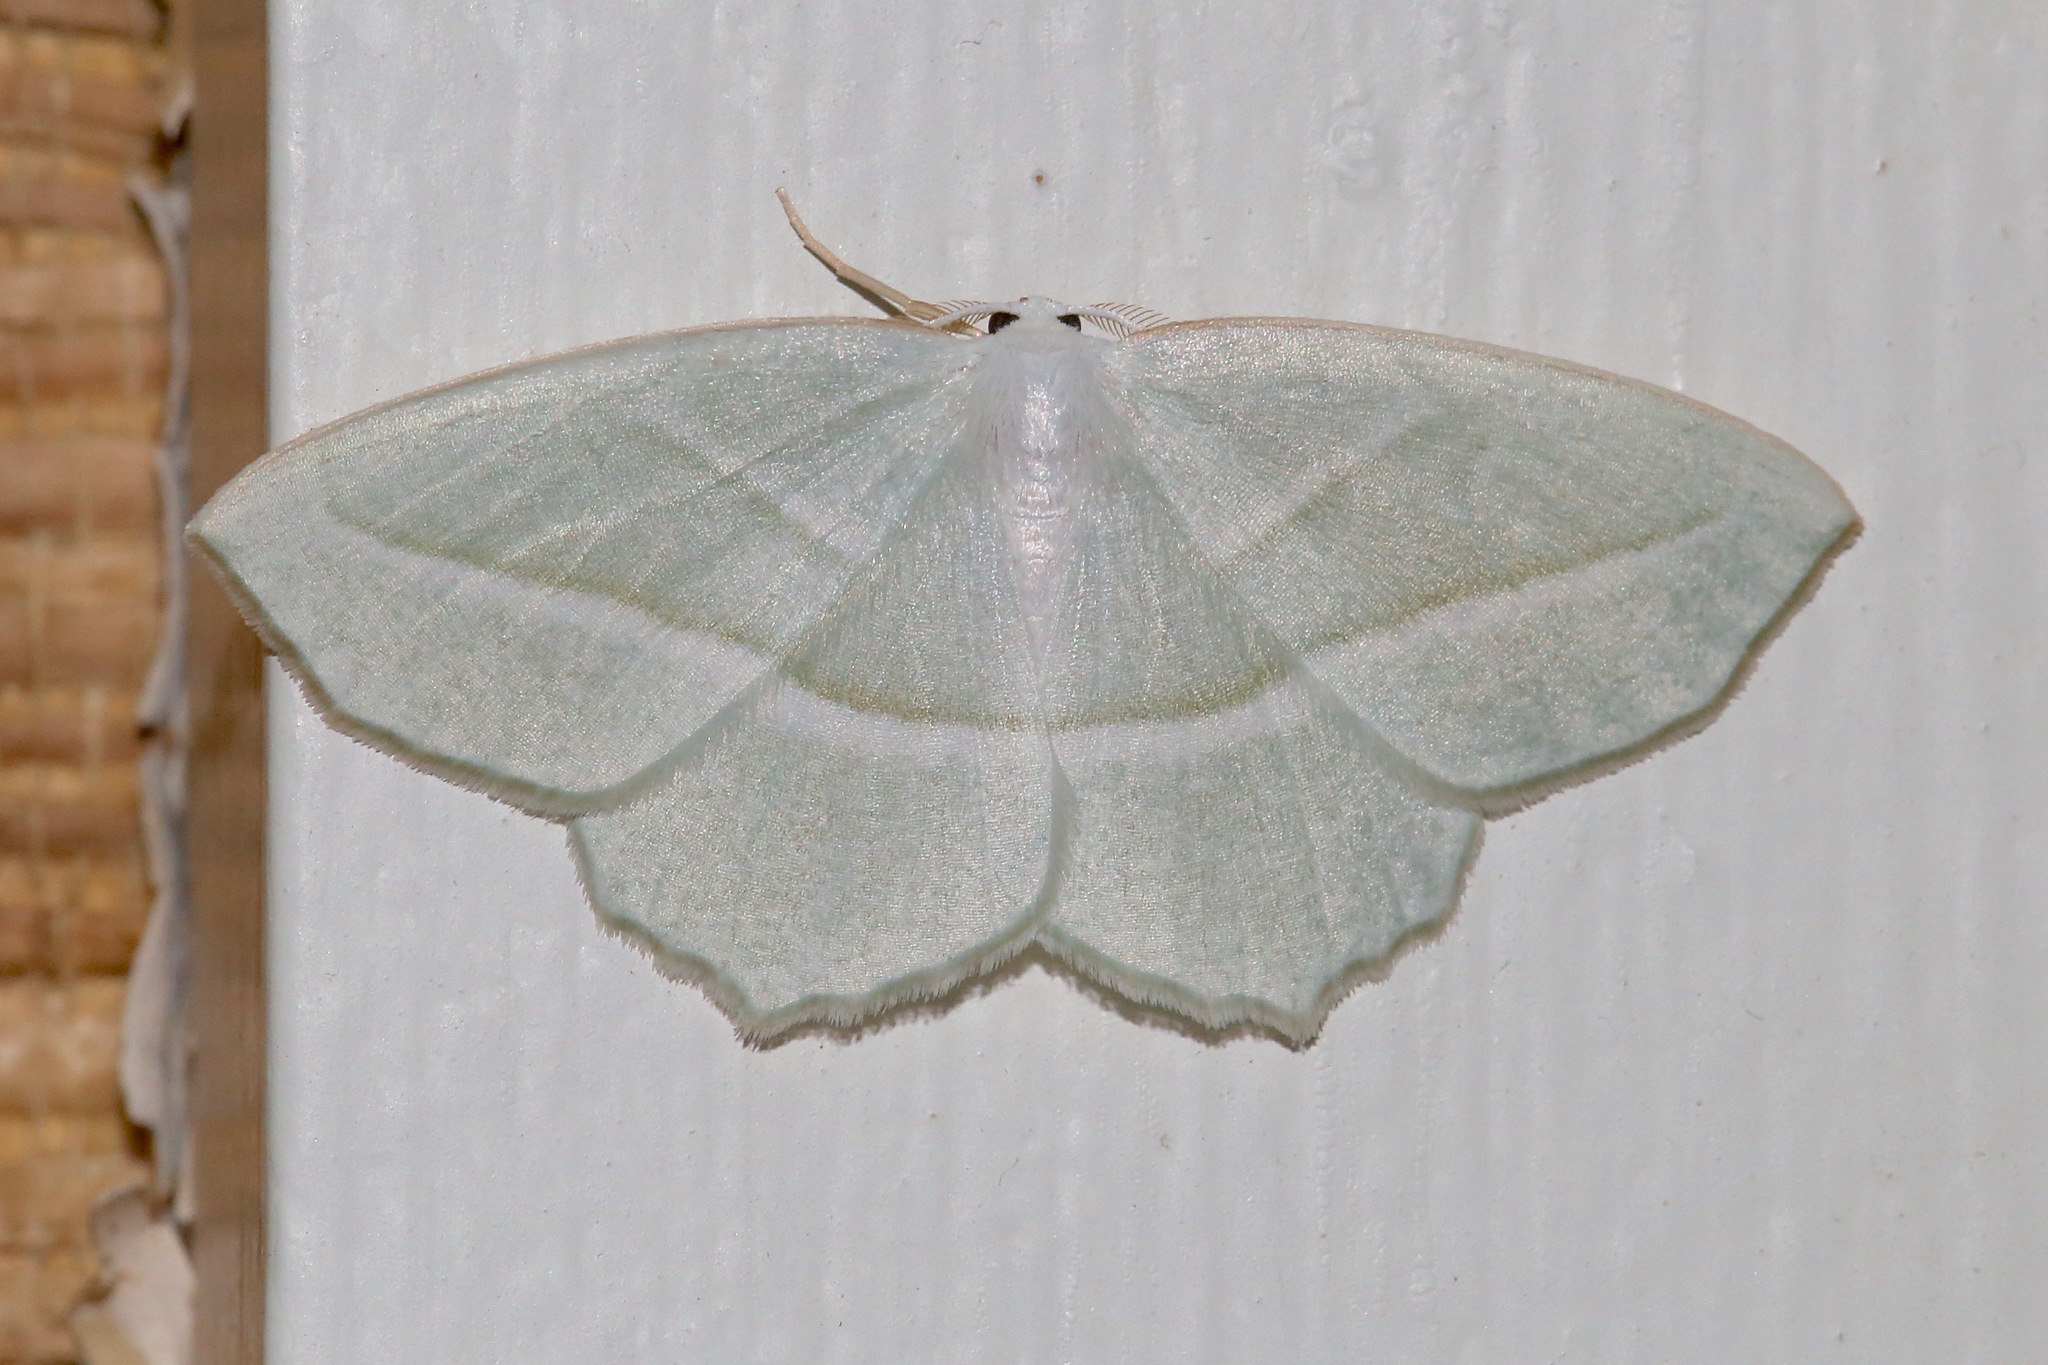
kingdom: Animalia
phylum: Arthropoda
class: Insecta
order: Lepidoptera
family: Geometridae
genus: Campaea
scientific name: Campaea perlata
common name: Fringed looper
